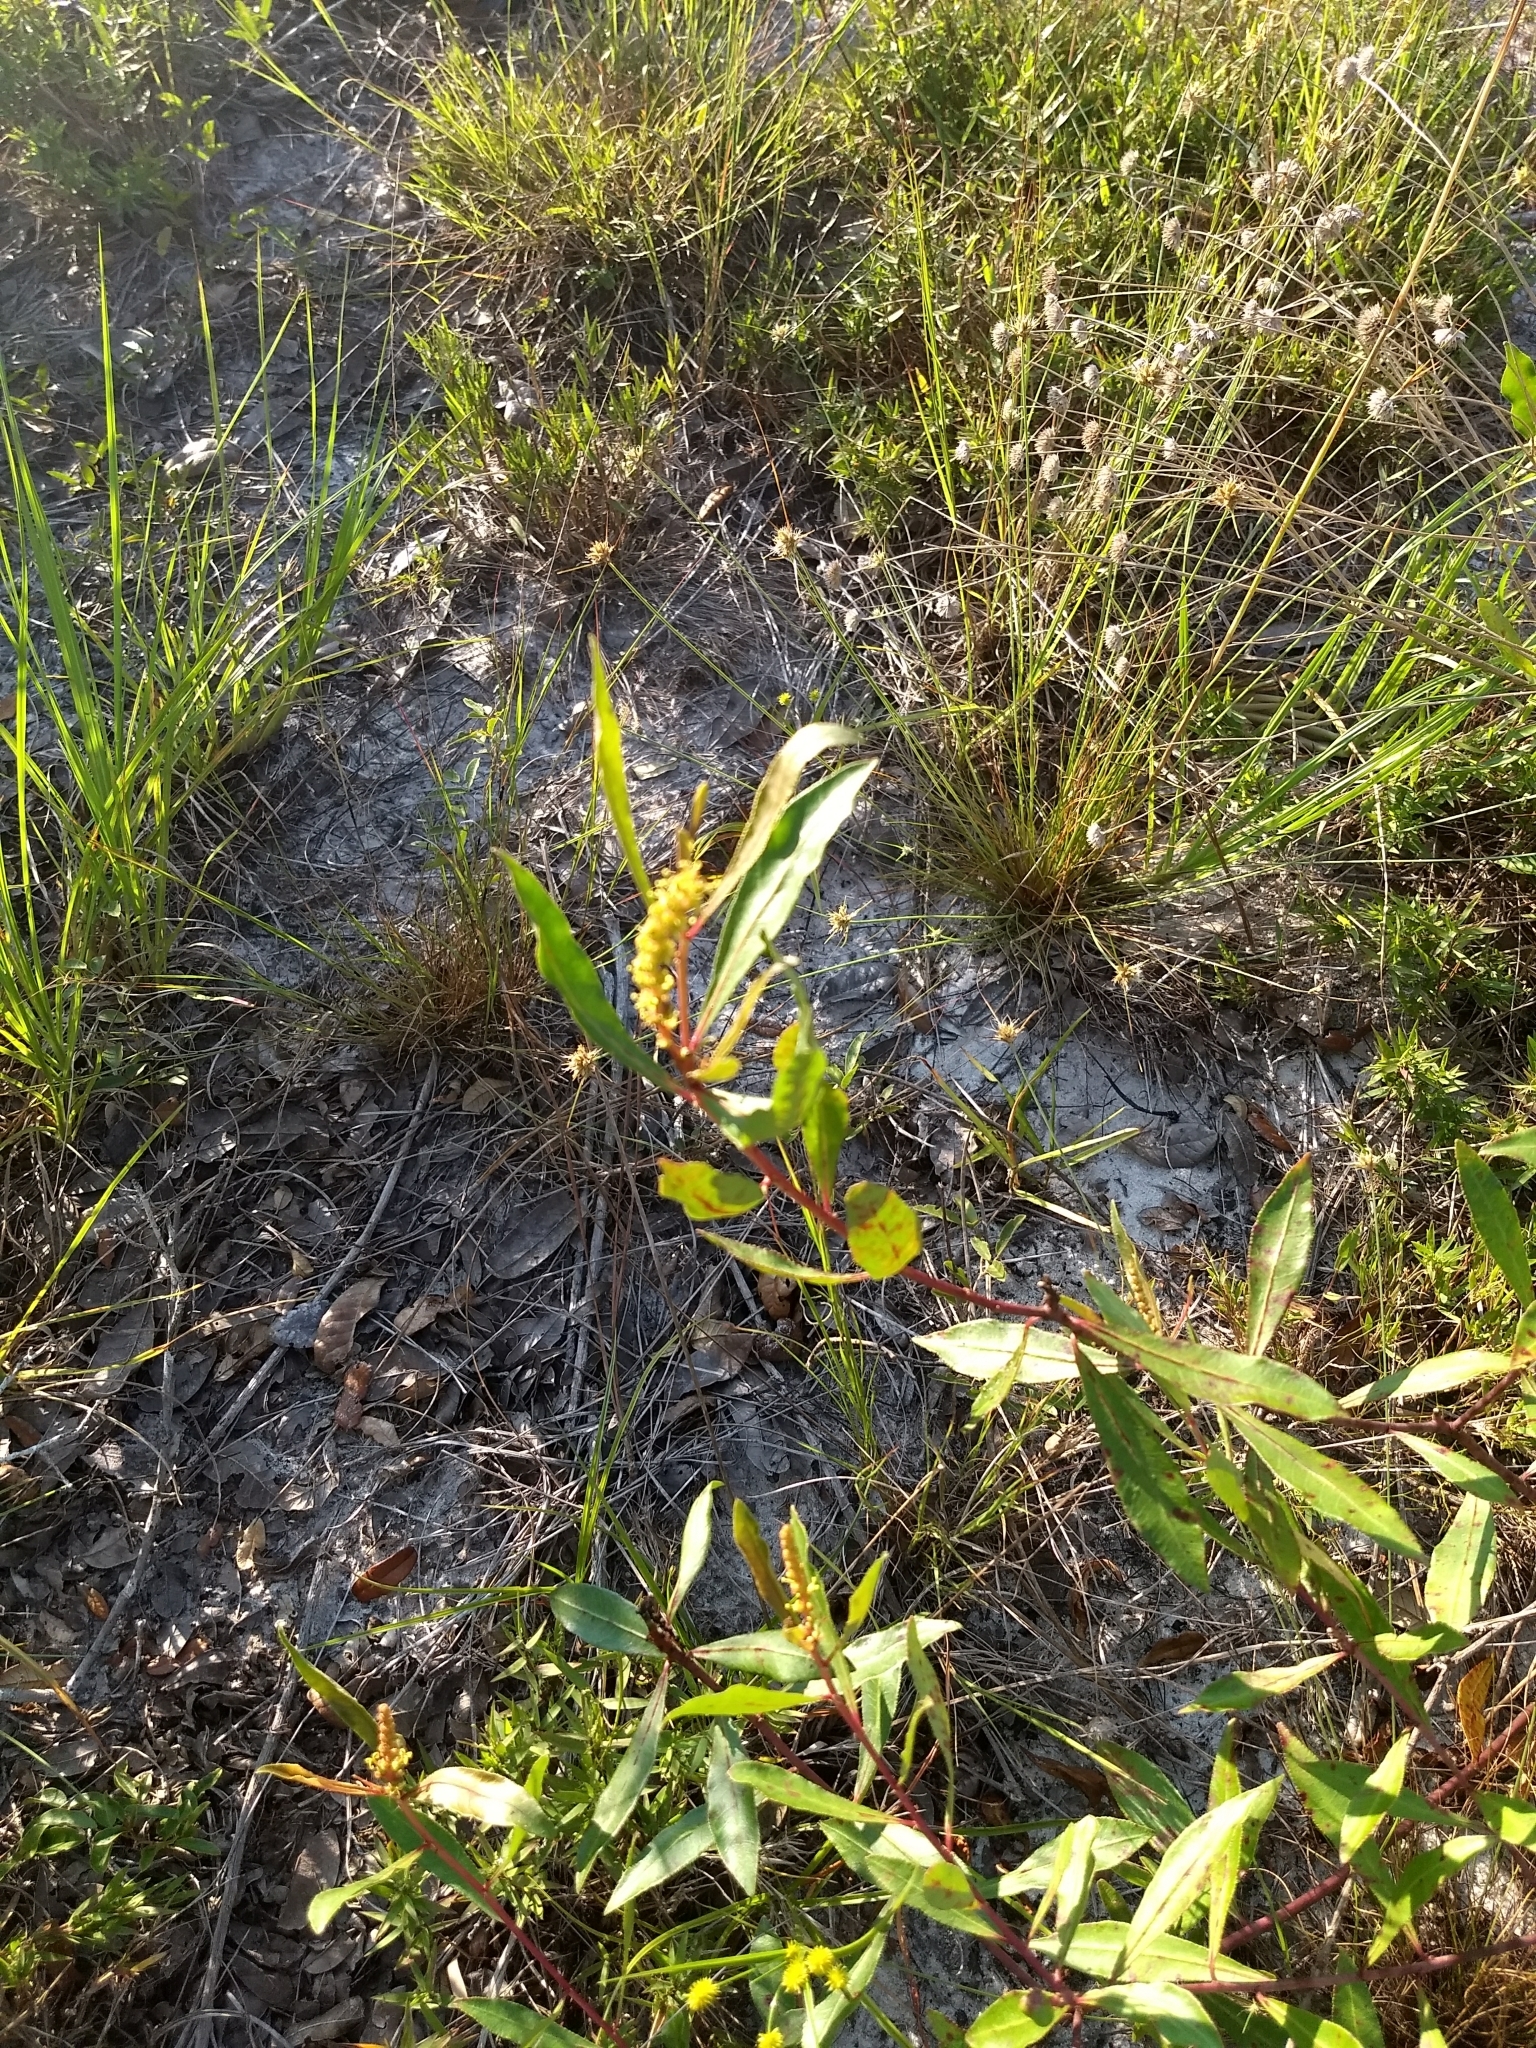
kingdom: Plantae
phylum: Tracheophyta
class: Magnoliopsida
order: Malpighiales
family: Euphorbiaceae
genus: Stillingia
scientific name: Stillingia sylvatica
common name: Queen's-delight
